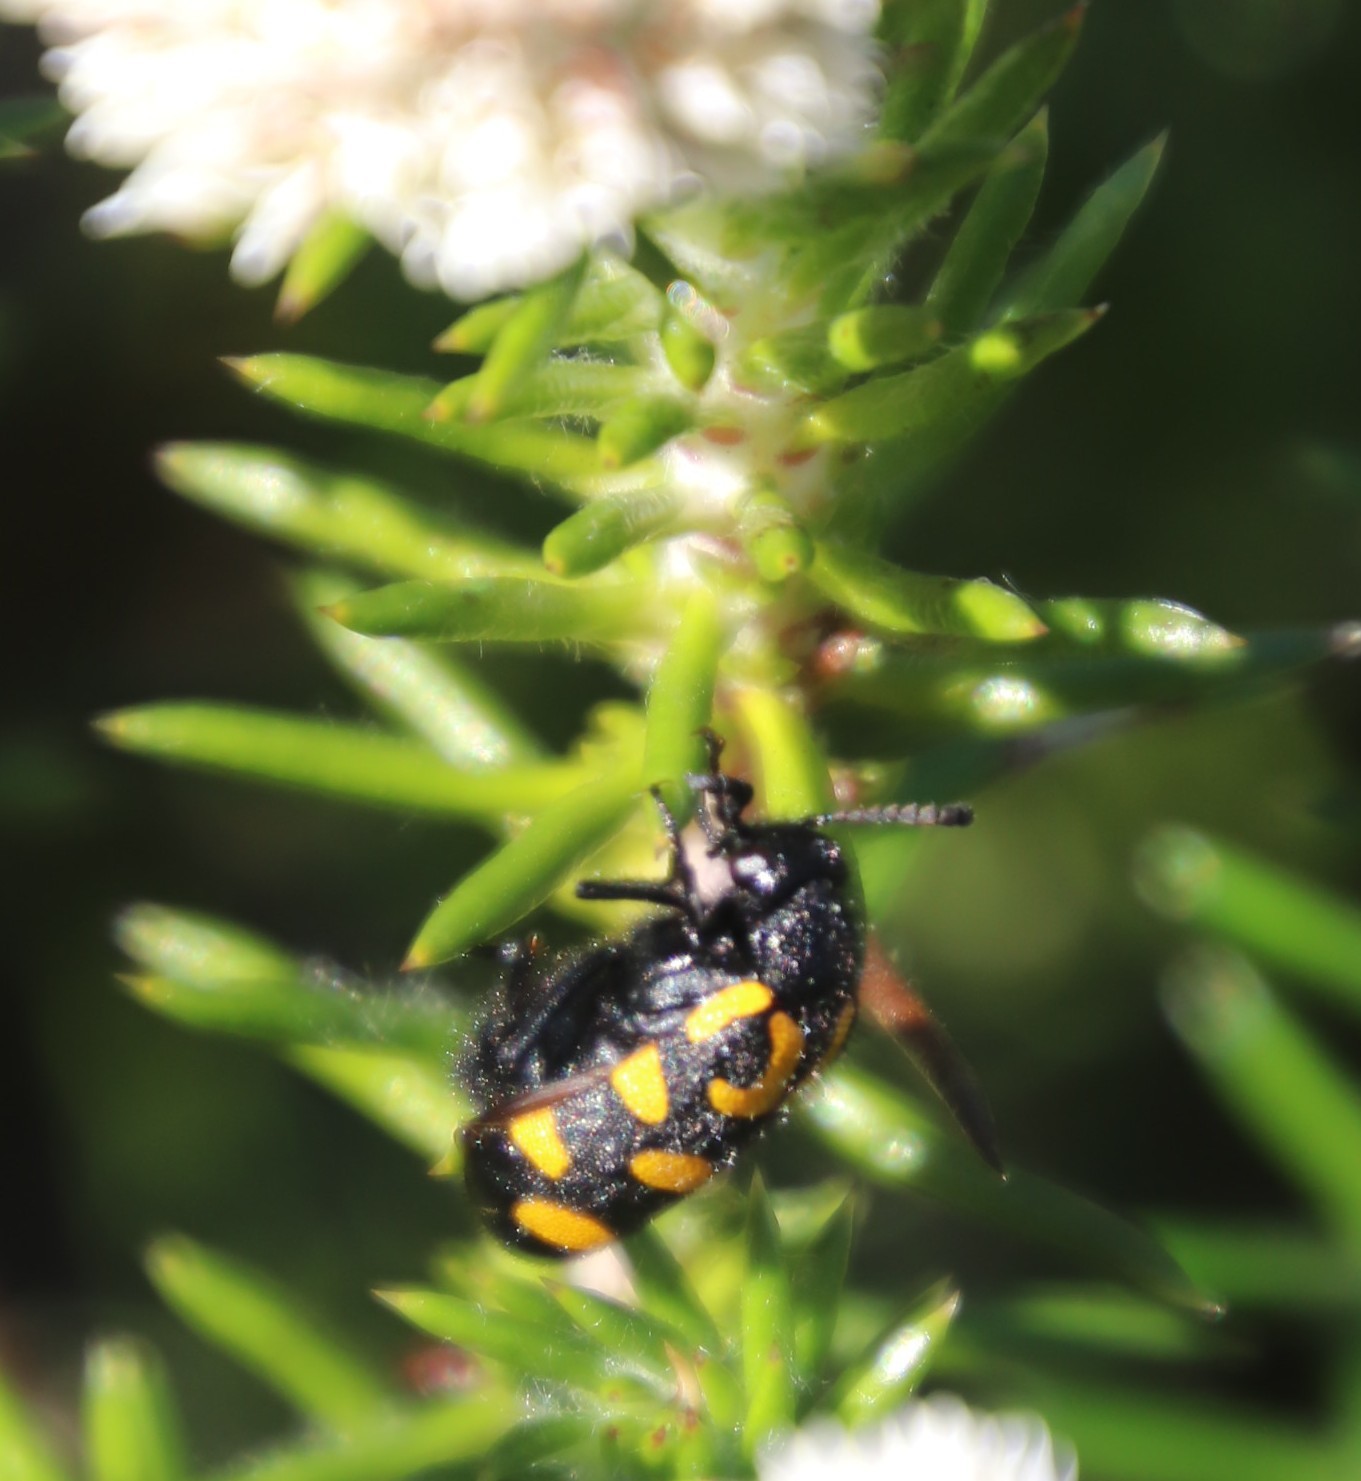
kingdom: Animalia
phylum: Arthropoda
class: Insecta
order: Coleoptera
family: Meloidae
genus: Ceroctis
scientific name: Ceroctis capensis
